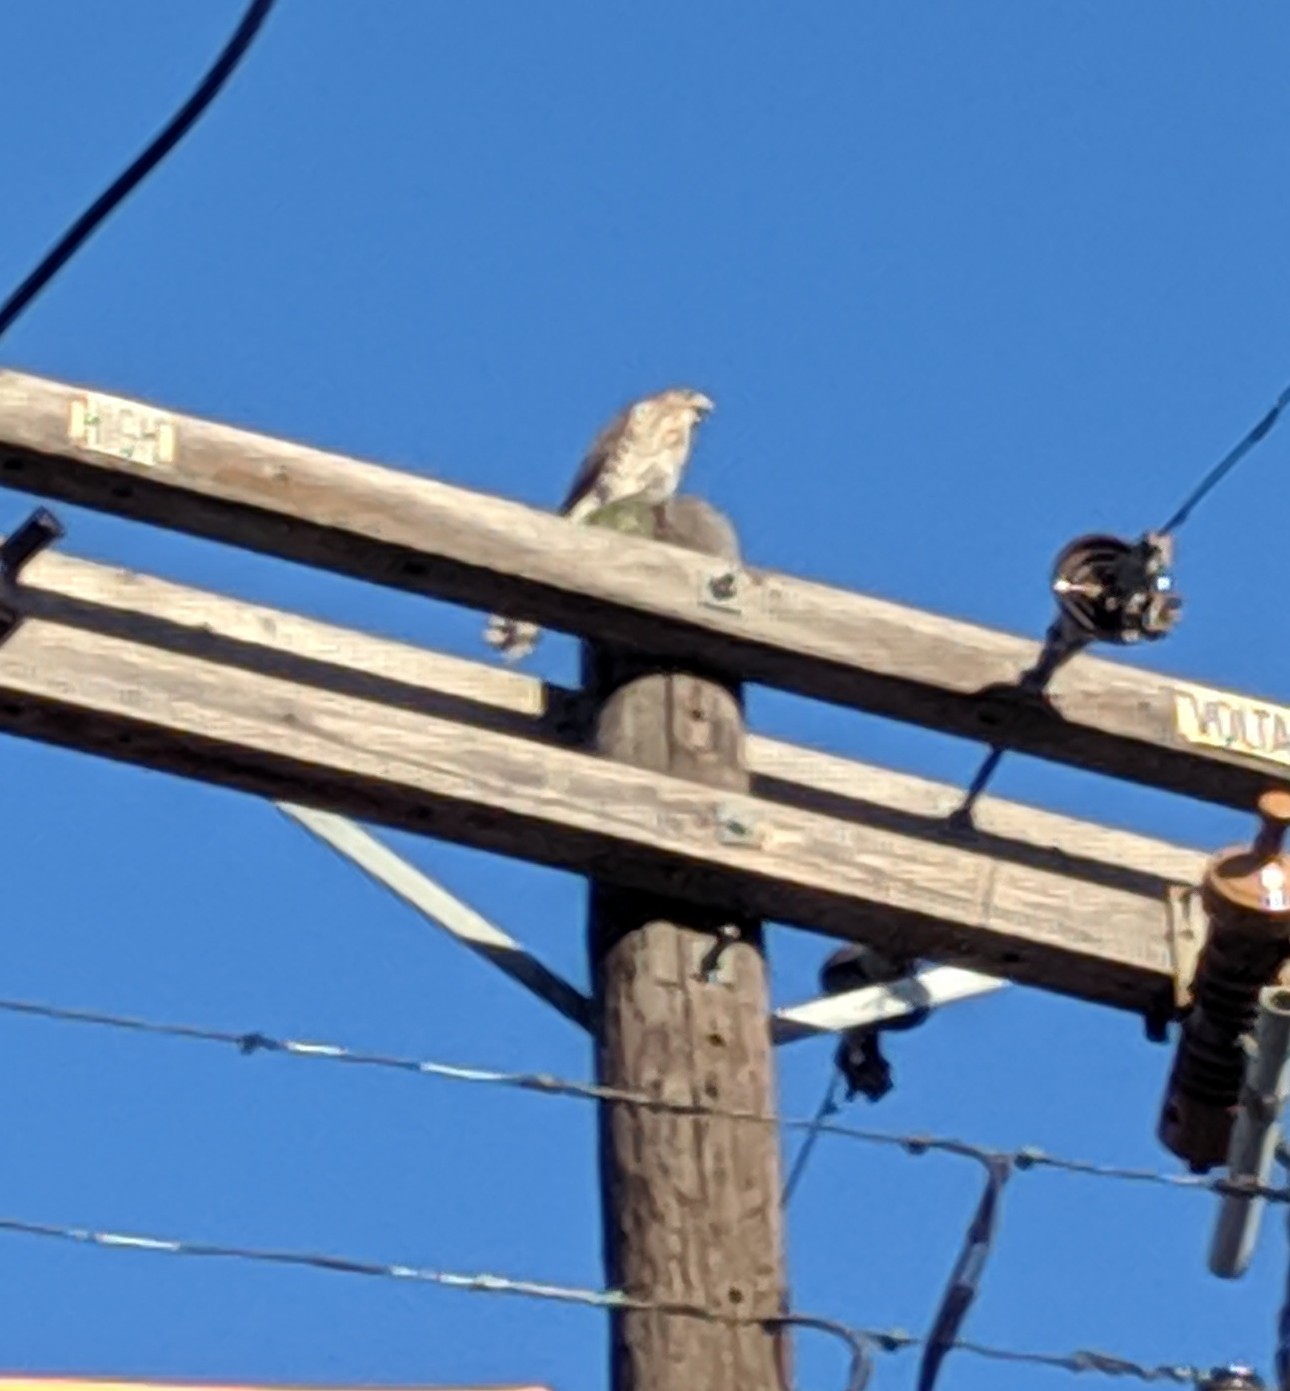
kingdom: Animalia
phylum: Chordata
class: Aves
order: Accipitriformes
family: Accipitridae
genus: Accipiter
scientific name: Accipiter cooperii
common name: Cooper's hawk
